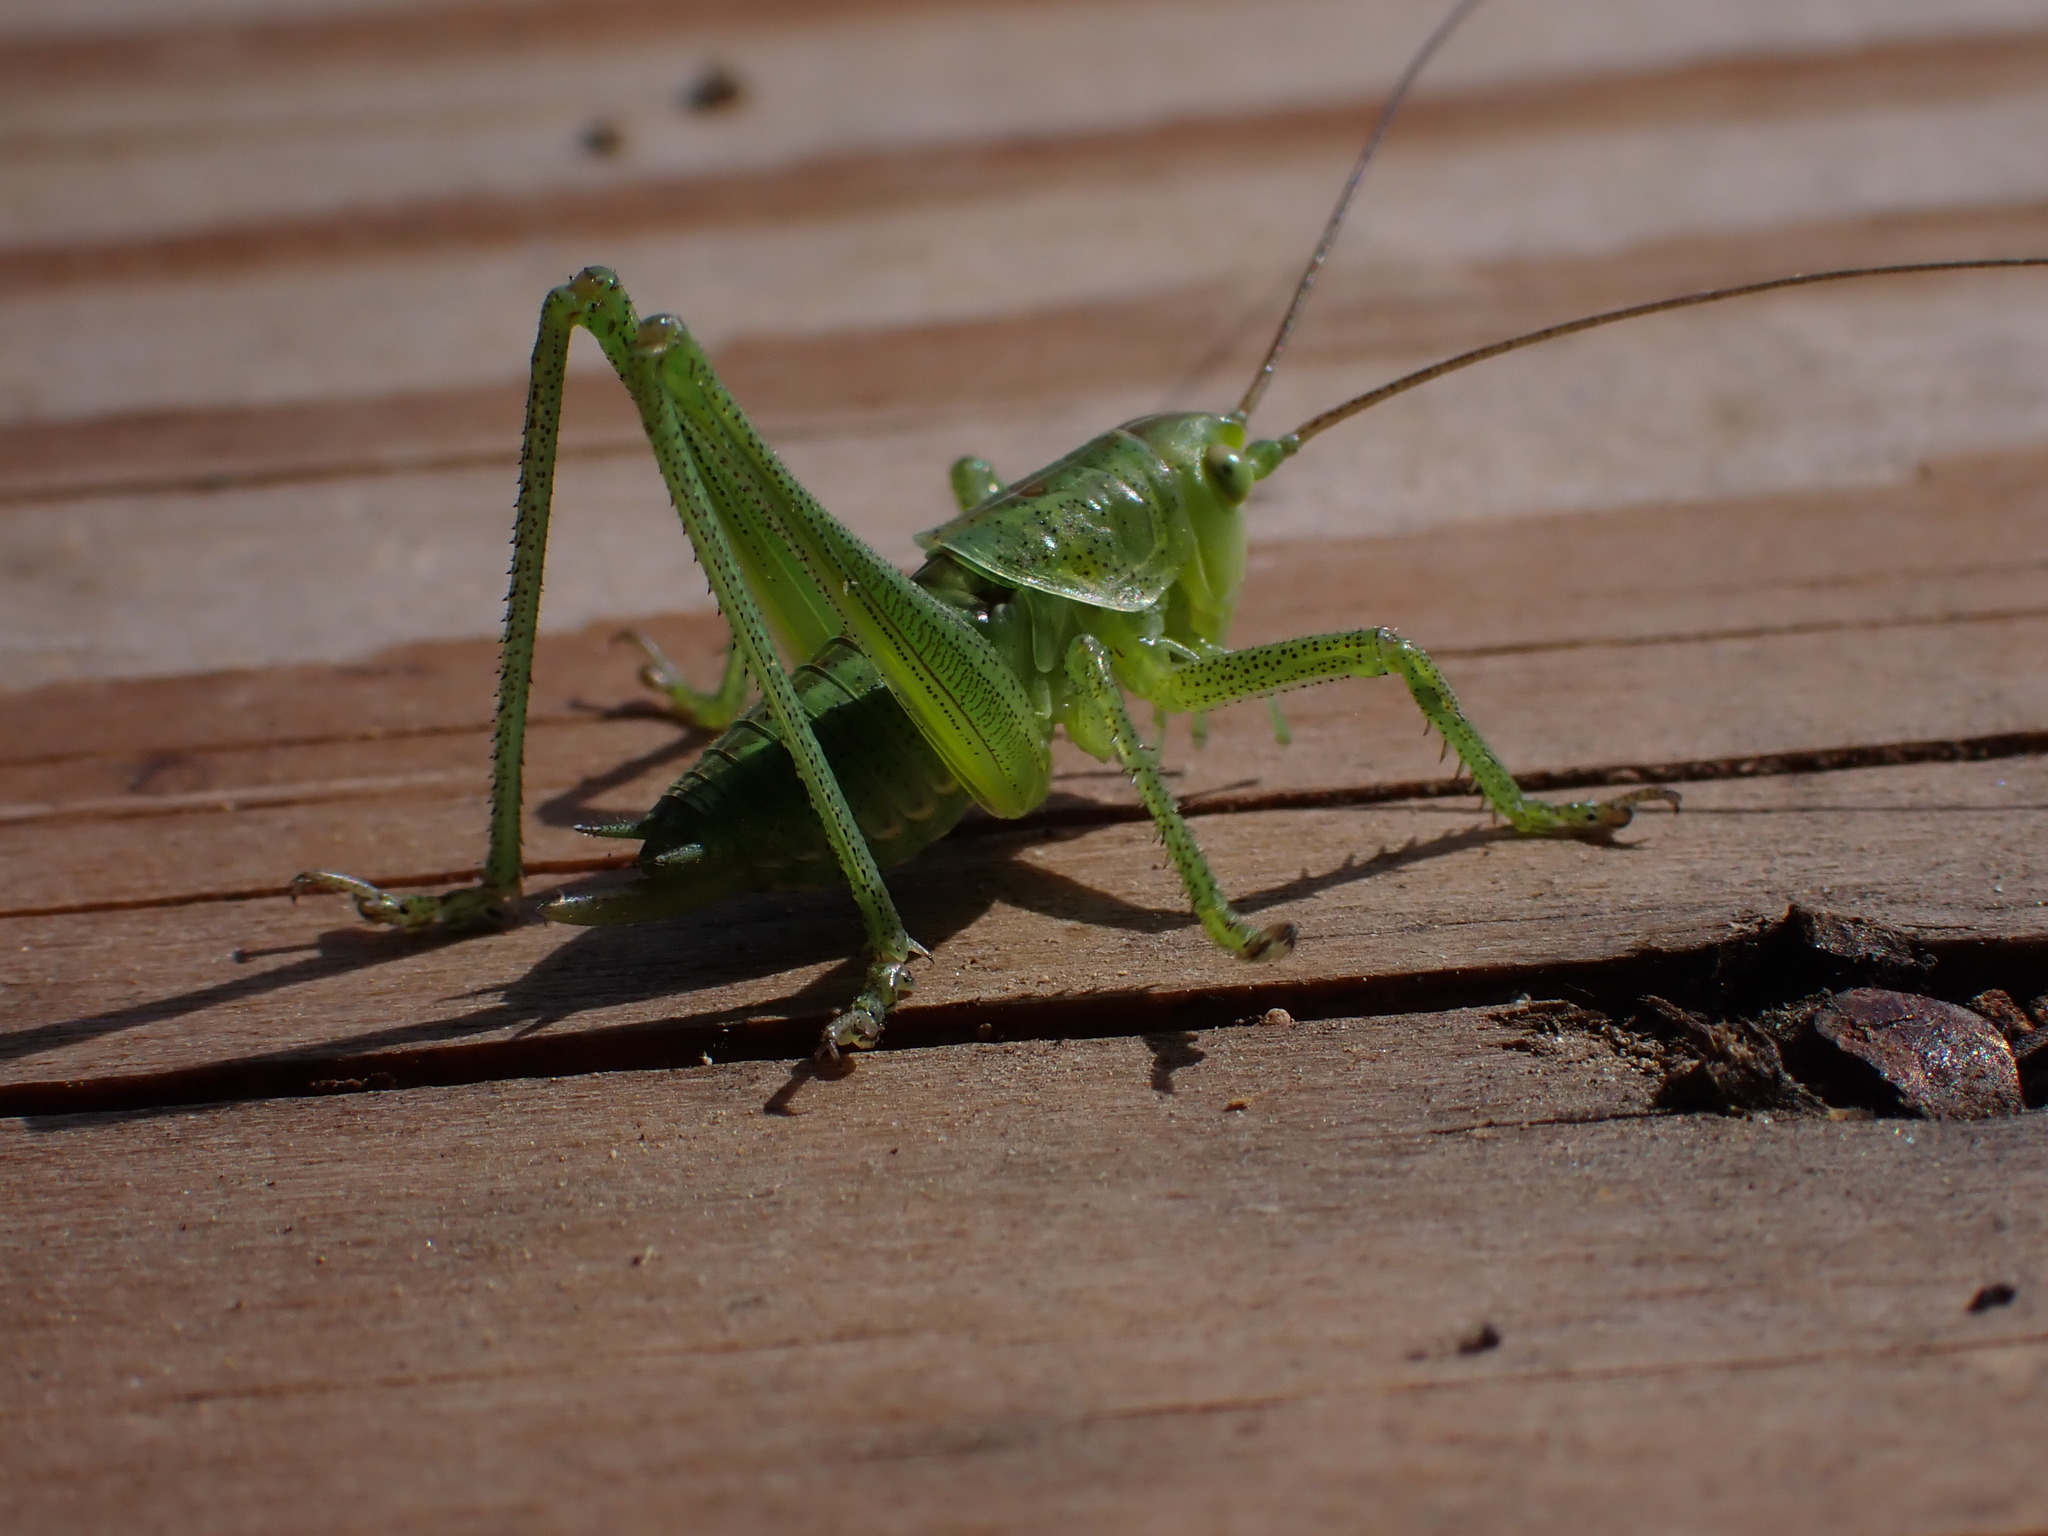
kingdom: Animalia
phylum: Arthropoda
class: Insecta
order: Orthoptera
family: Tettigoniidae
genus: Tettigonia
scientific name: Tettigonia viridissima
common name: Great green bush-cricket
